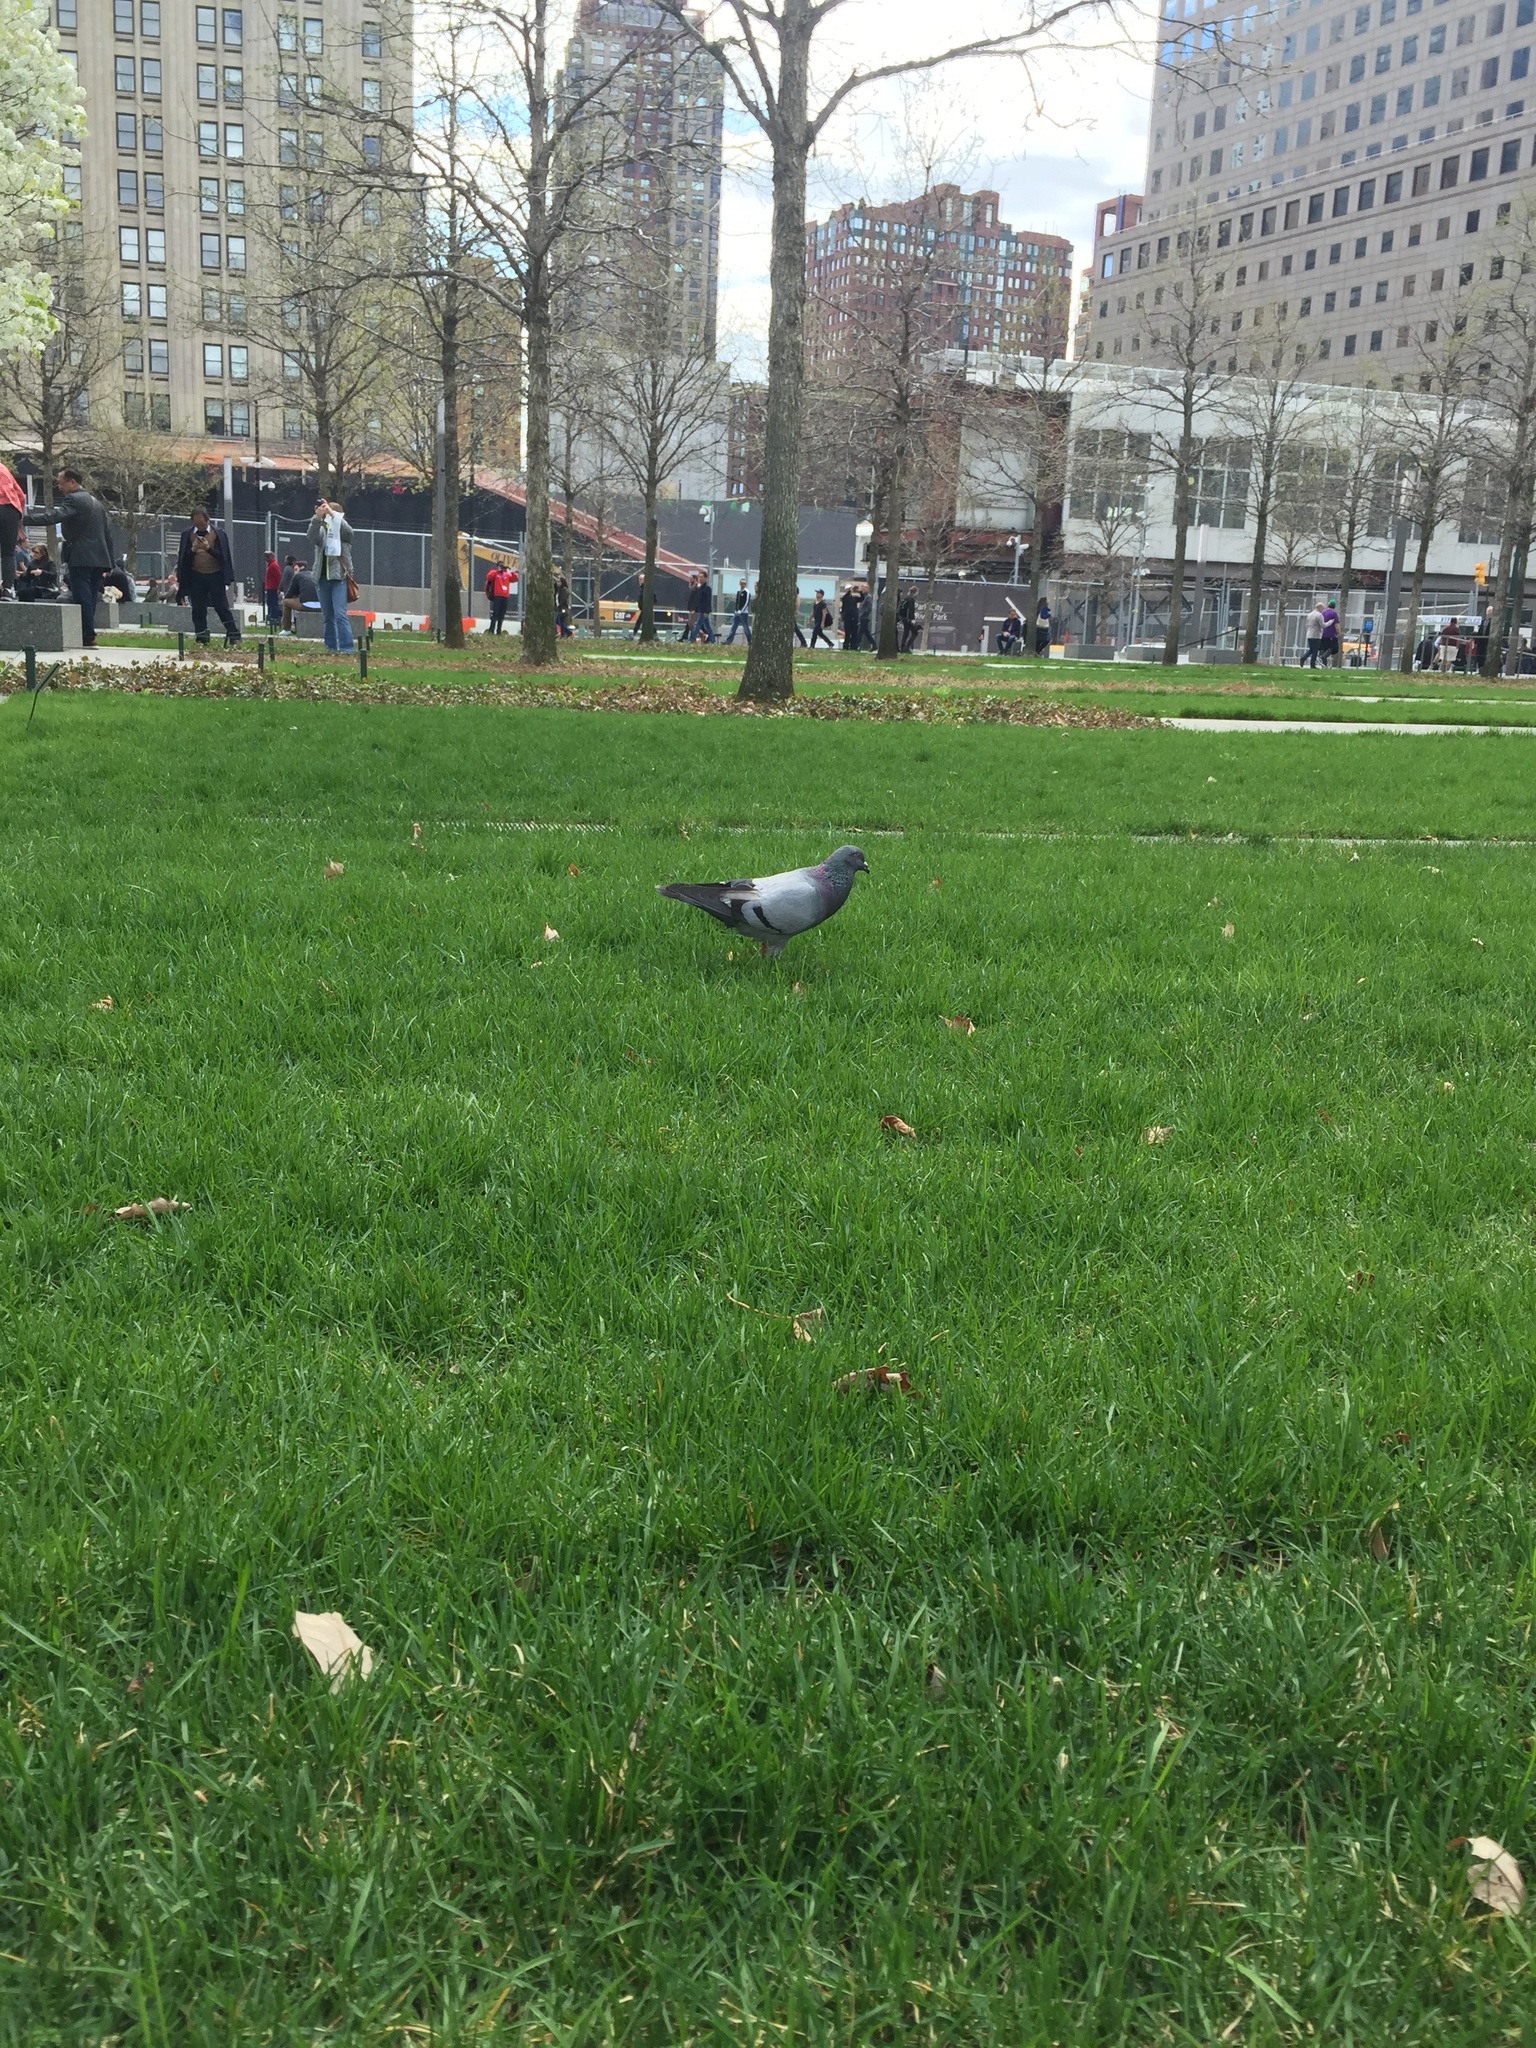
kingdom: Animalia
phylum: Chordata
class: Aves
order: Columbiformes
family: Columbidae
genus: Columba
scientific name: Columba livia
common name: Rock pigeon
